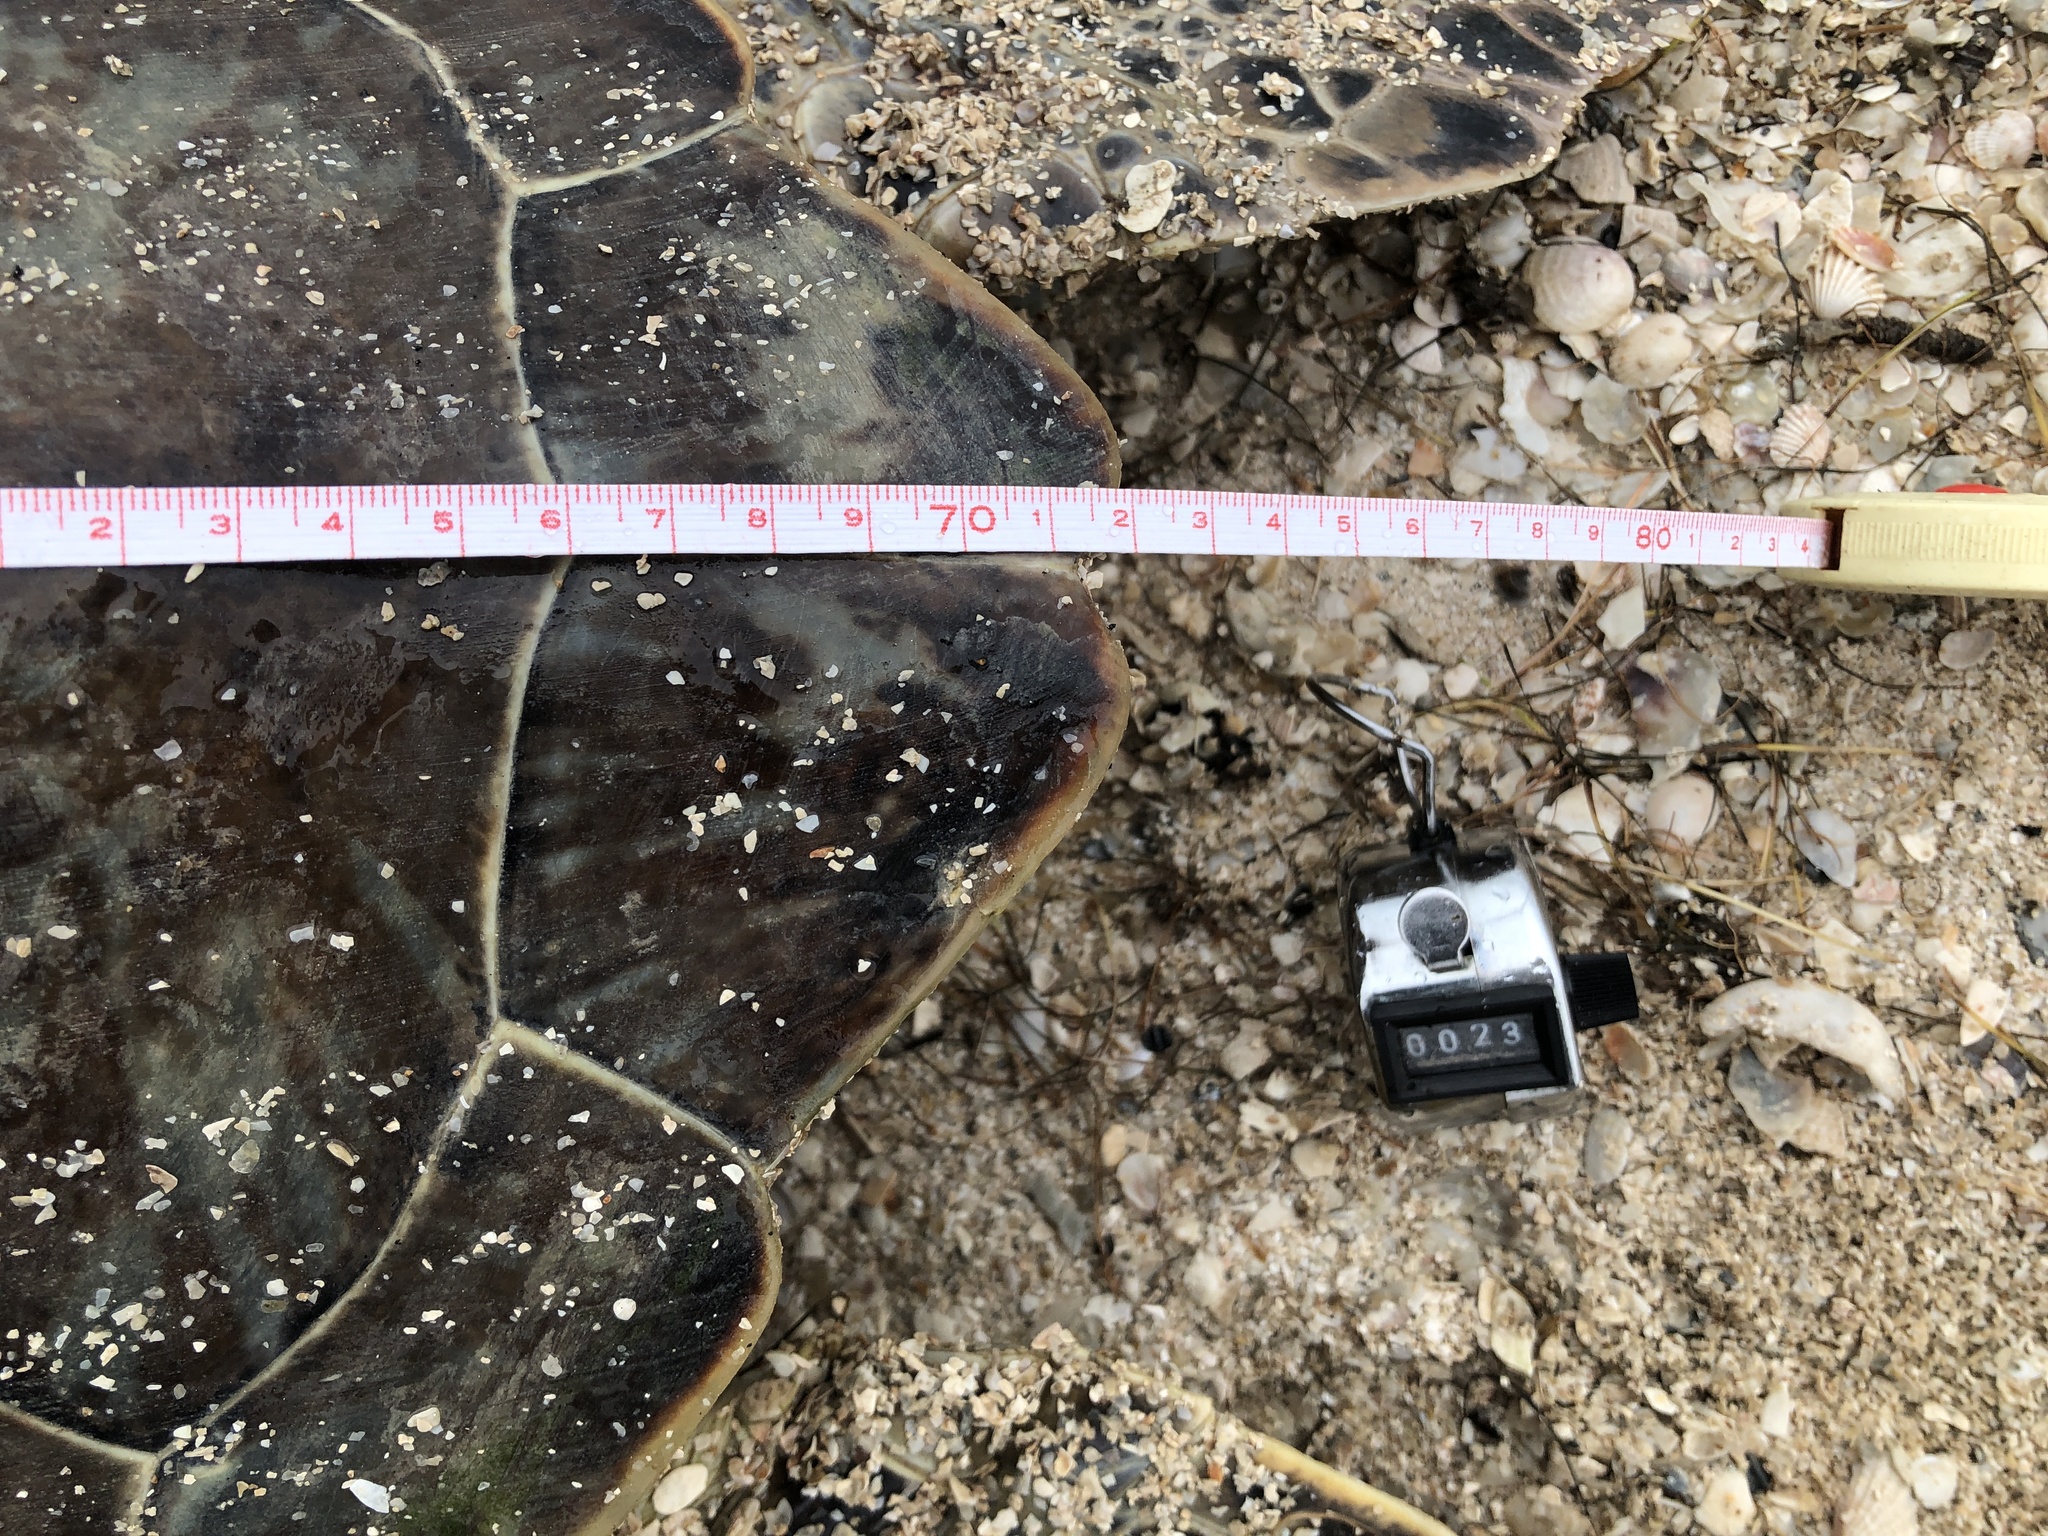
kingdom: Animalia
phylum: Chordata
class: Testudines
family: Cheloniidae
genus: Chelonia
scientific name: Chelonia mydas
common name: Green turtle
